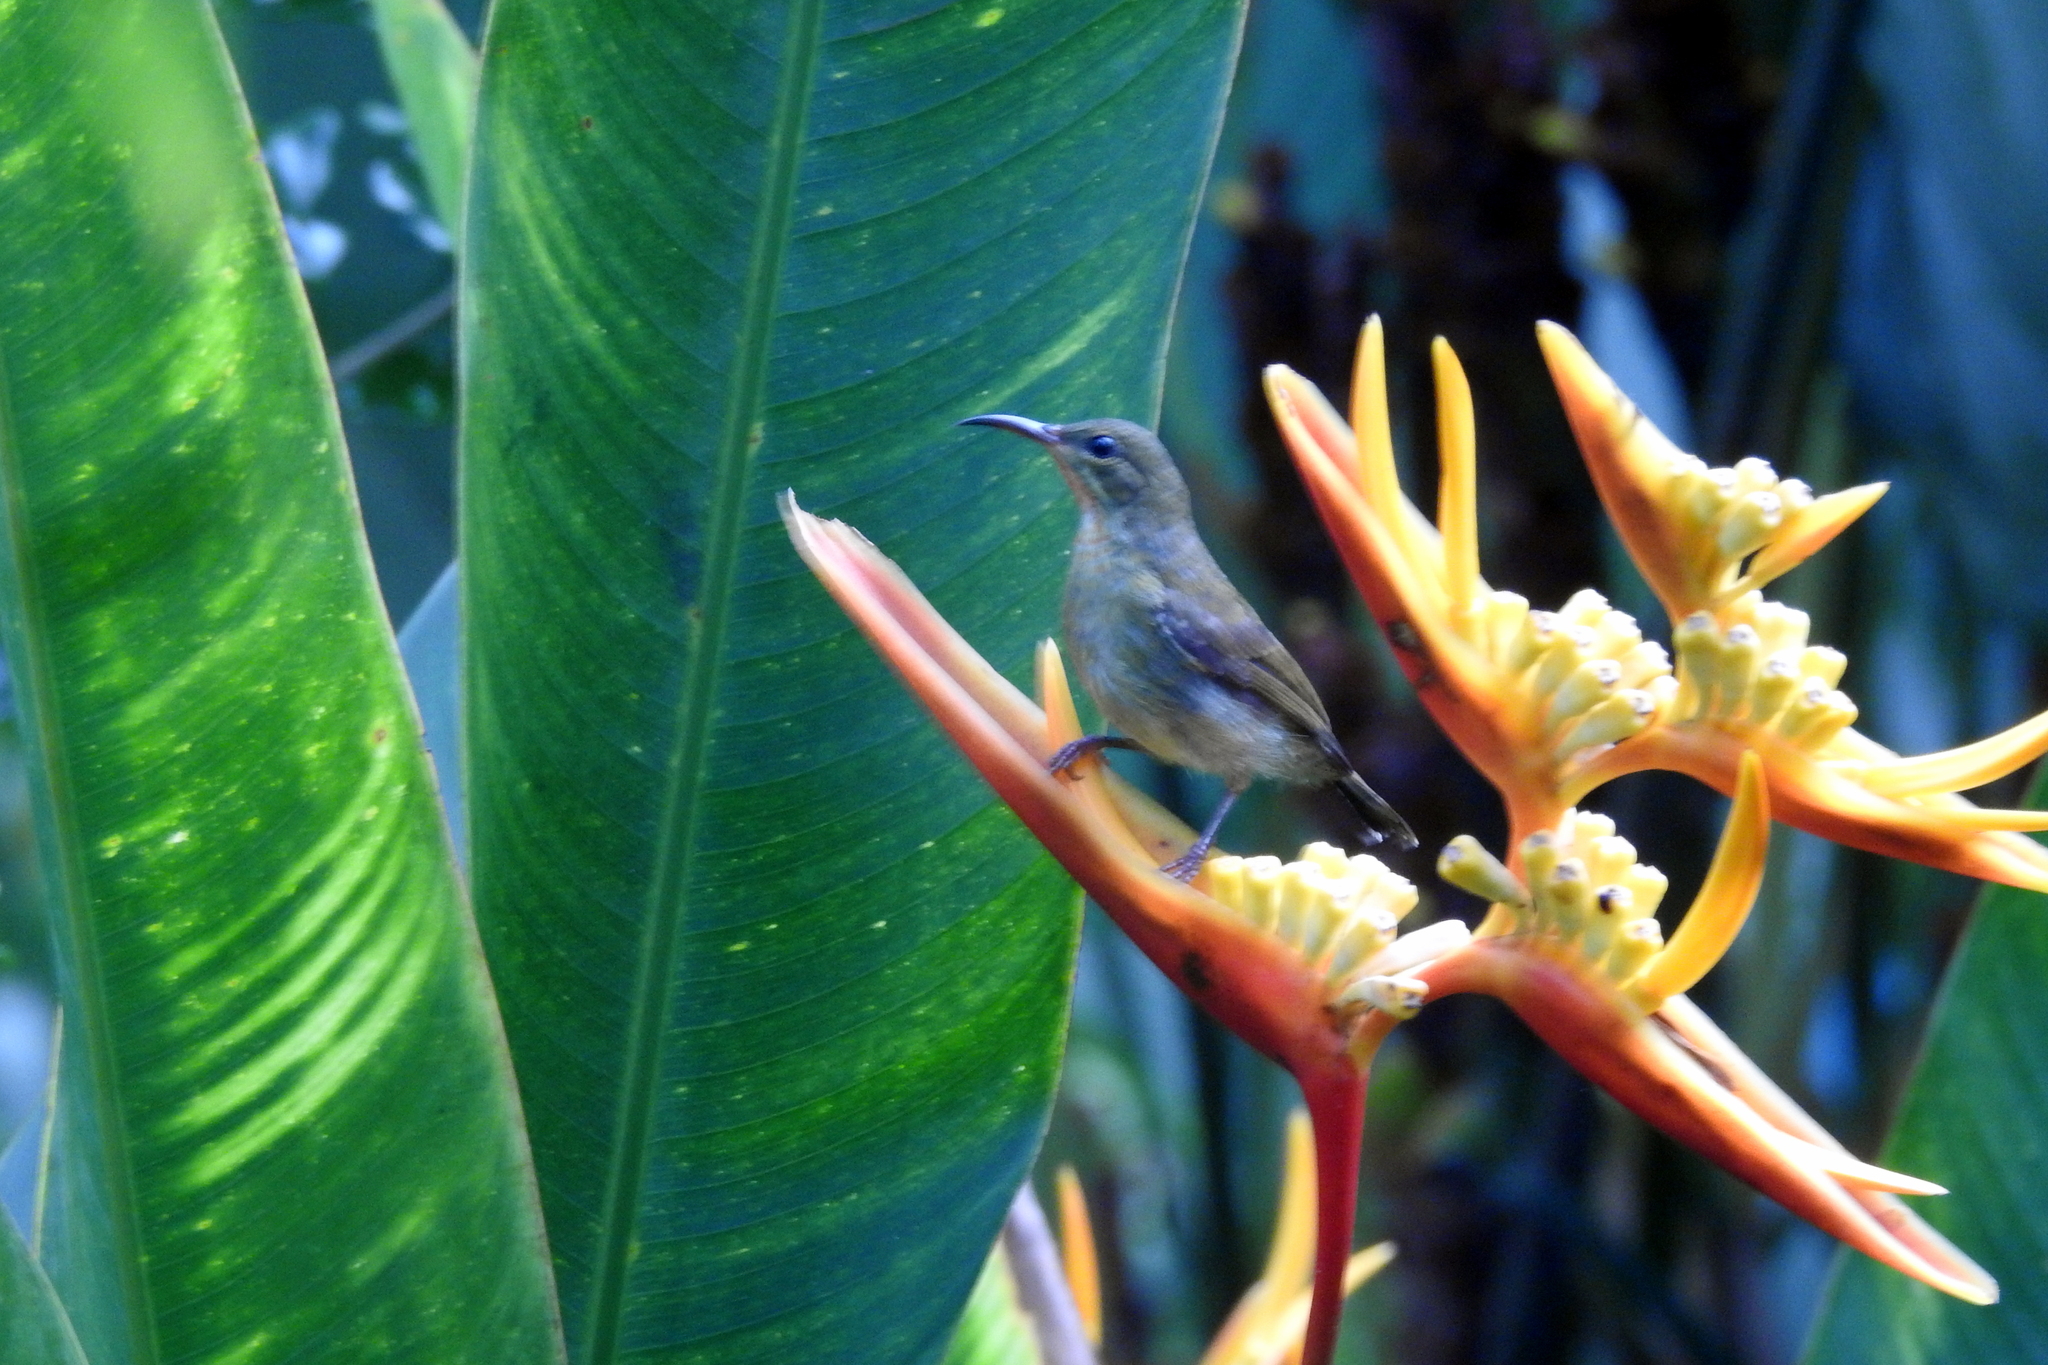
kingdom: Animalia
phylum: Chordata
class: Aves
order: Passeriformes
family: Nectariniidae
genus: Aethopyga
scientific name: Aethopyga siparaja
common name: Crimson sunbird
